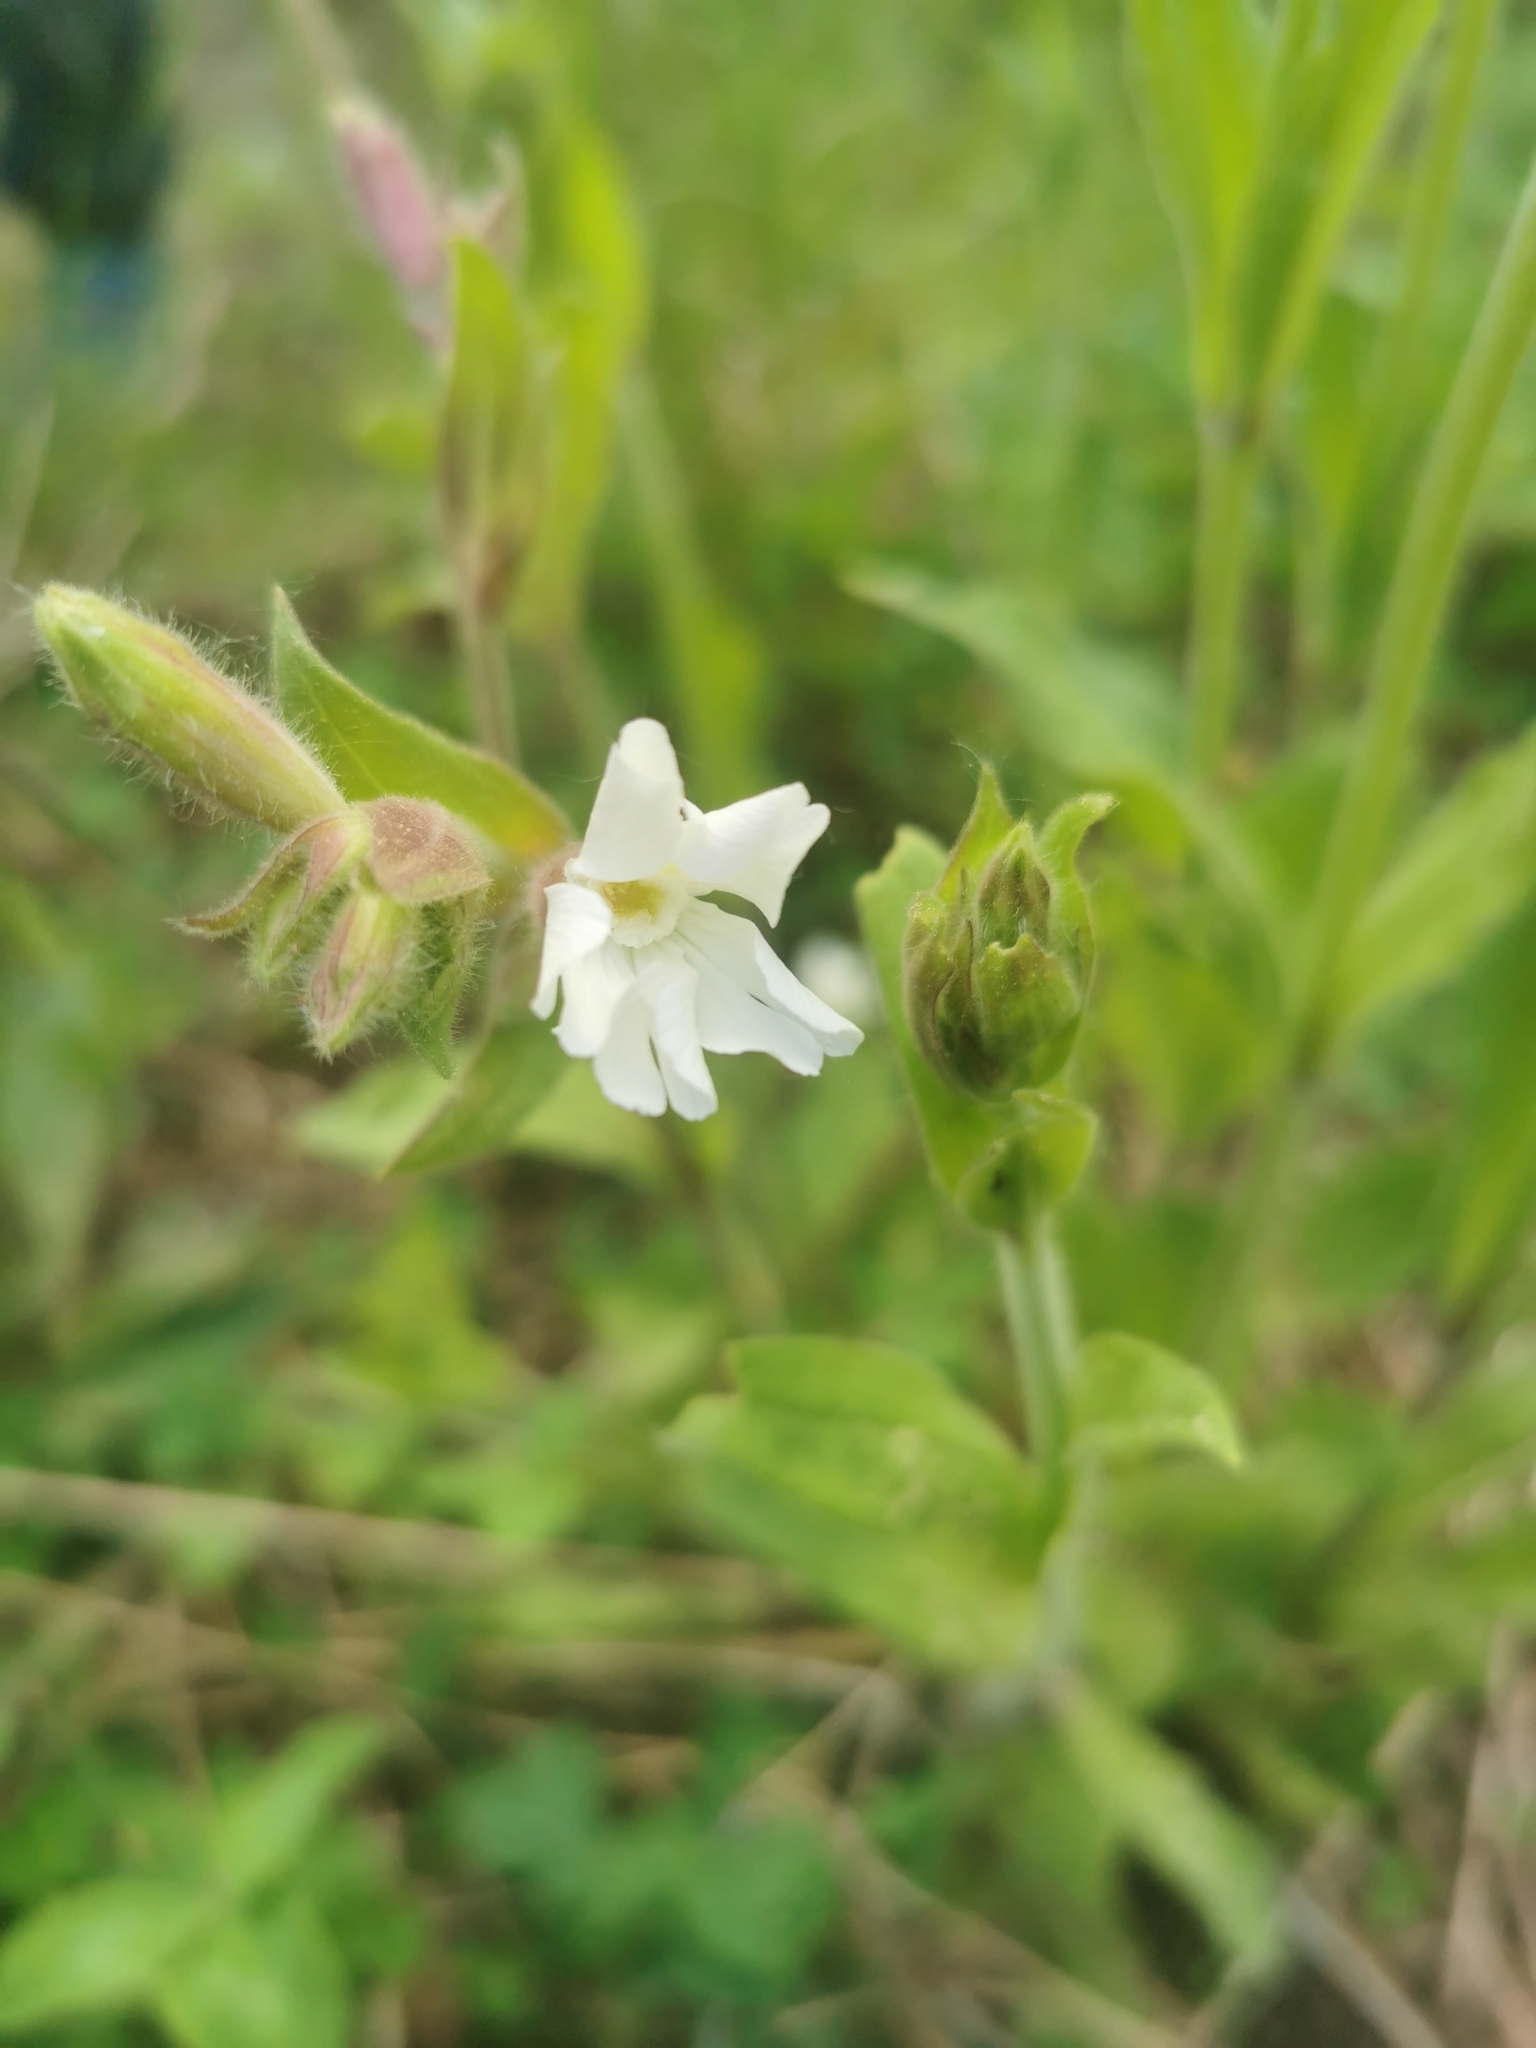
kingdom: Plantae
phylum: Tracheophyta
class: Magnoliopsida
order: Caryophyllales
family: Caryophyllaceae
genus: Silene
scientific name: Silene latifolia
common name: White campion
